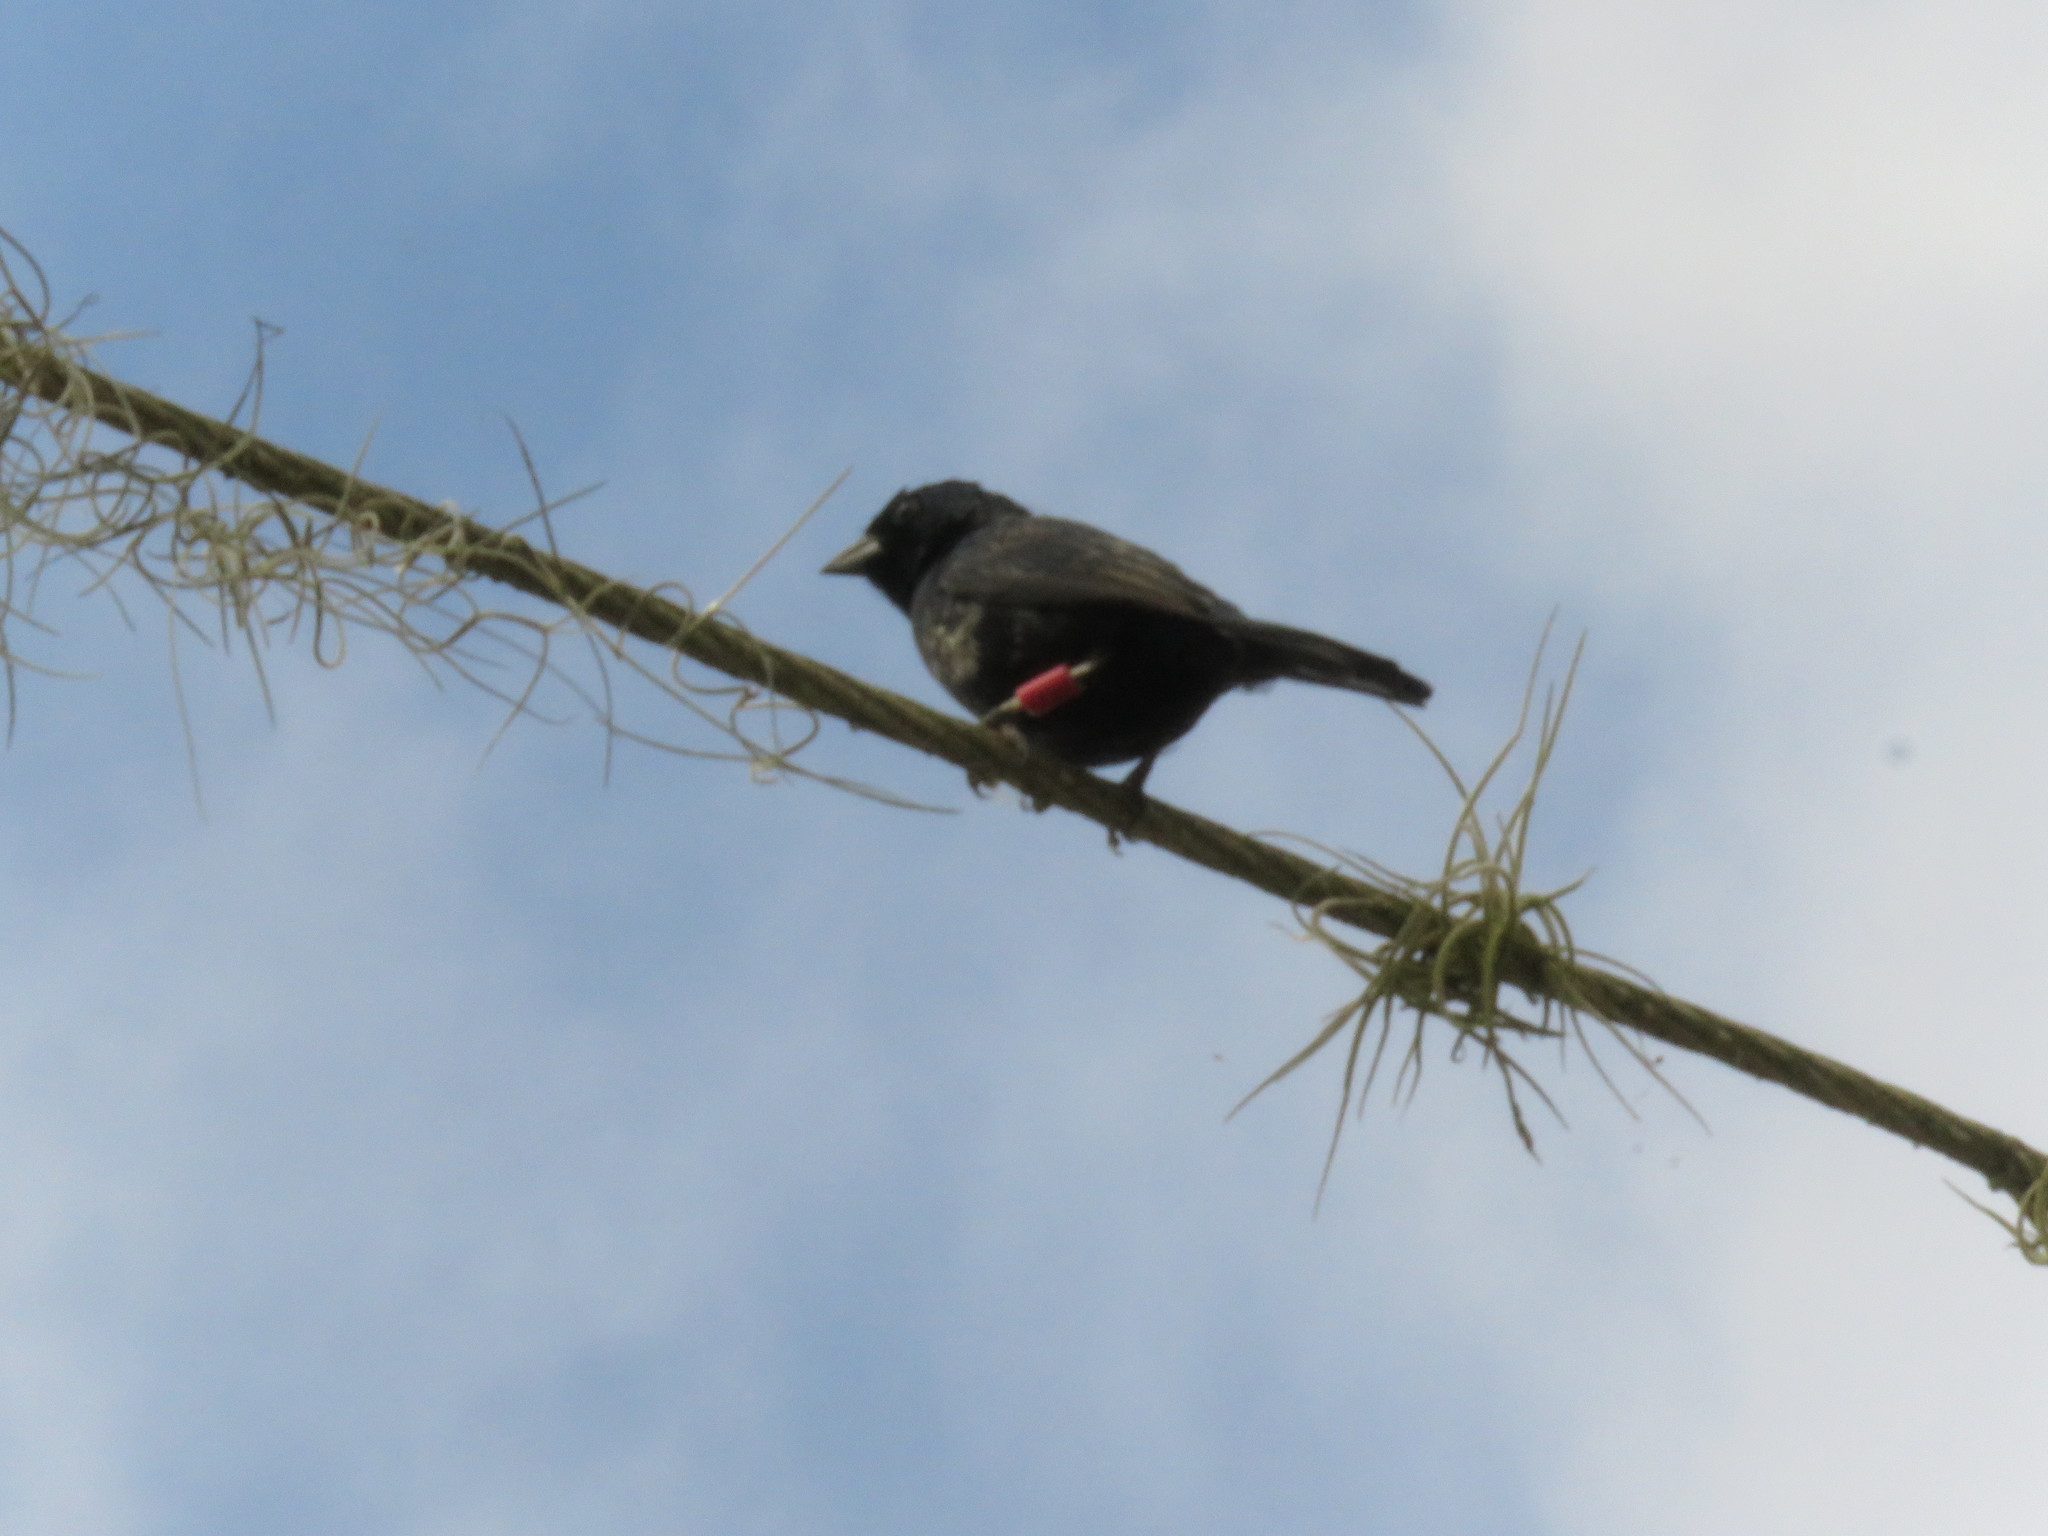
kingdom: Animalia
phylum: Chordata
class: Aves
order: Passeriformes
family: Thraupidae
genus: Volatinia
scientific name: Volatinia jacarina
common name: Blue-black grassquit
